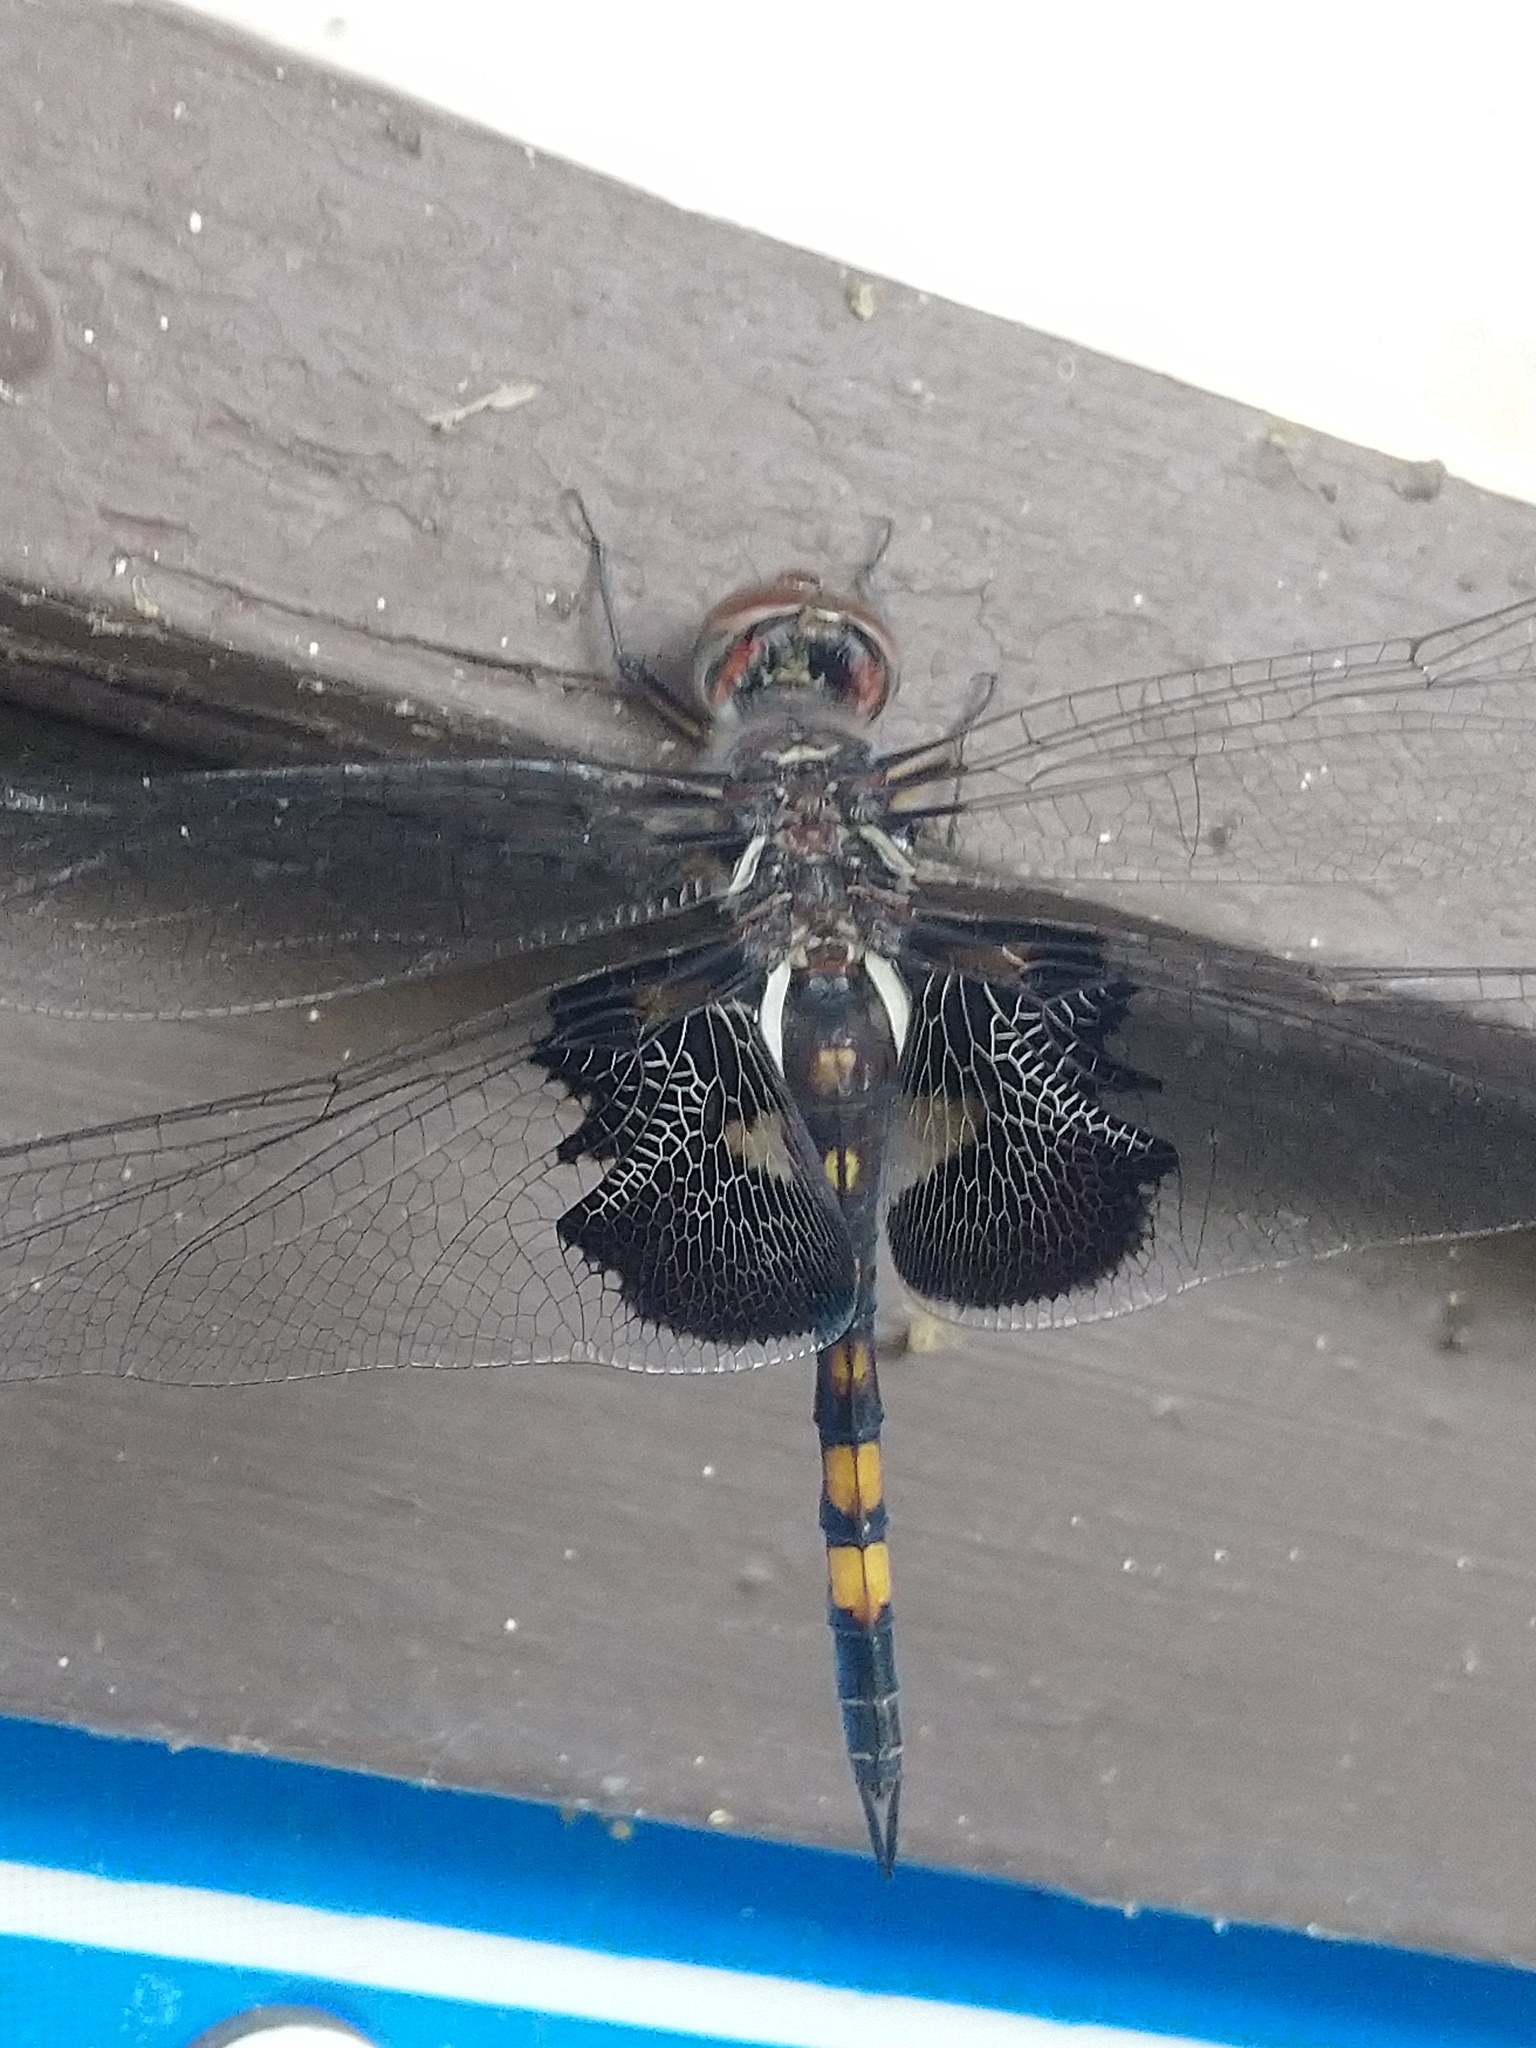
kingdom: Animalia
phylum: Arthropoda
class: Insecta
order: Odonata
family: Libellulidae
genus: Tramea
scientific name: Tramea lacerata
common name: Black saddlebags
